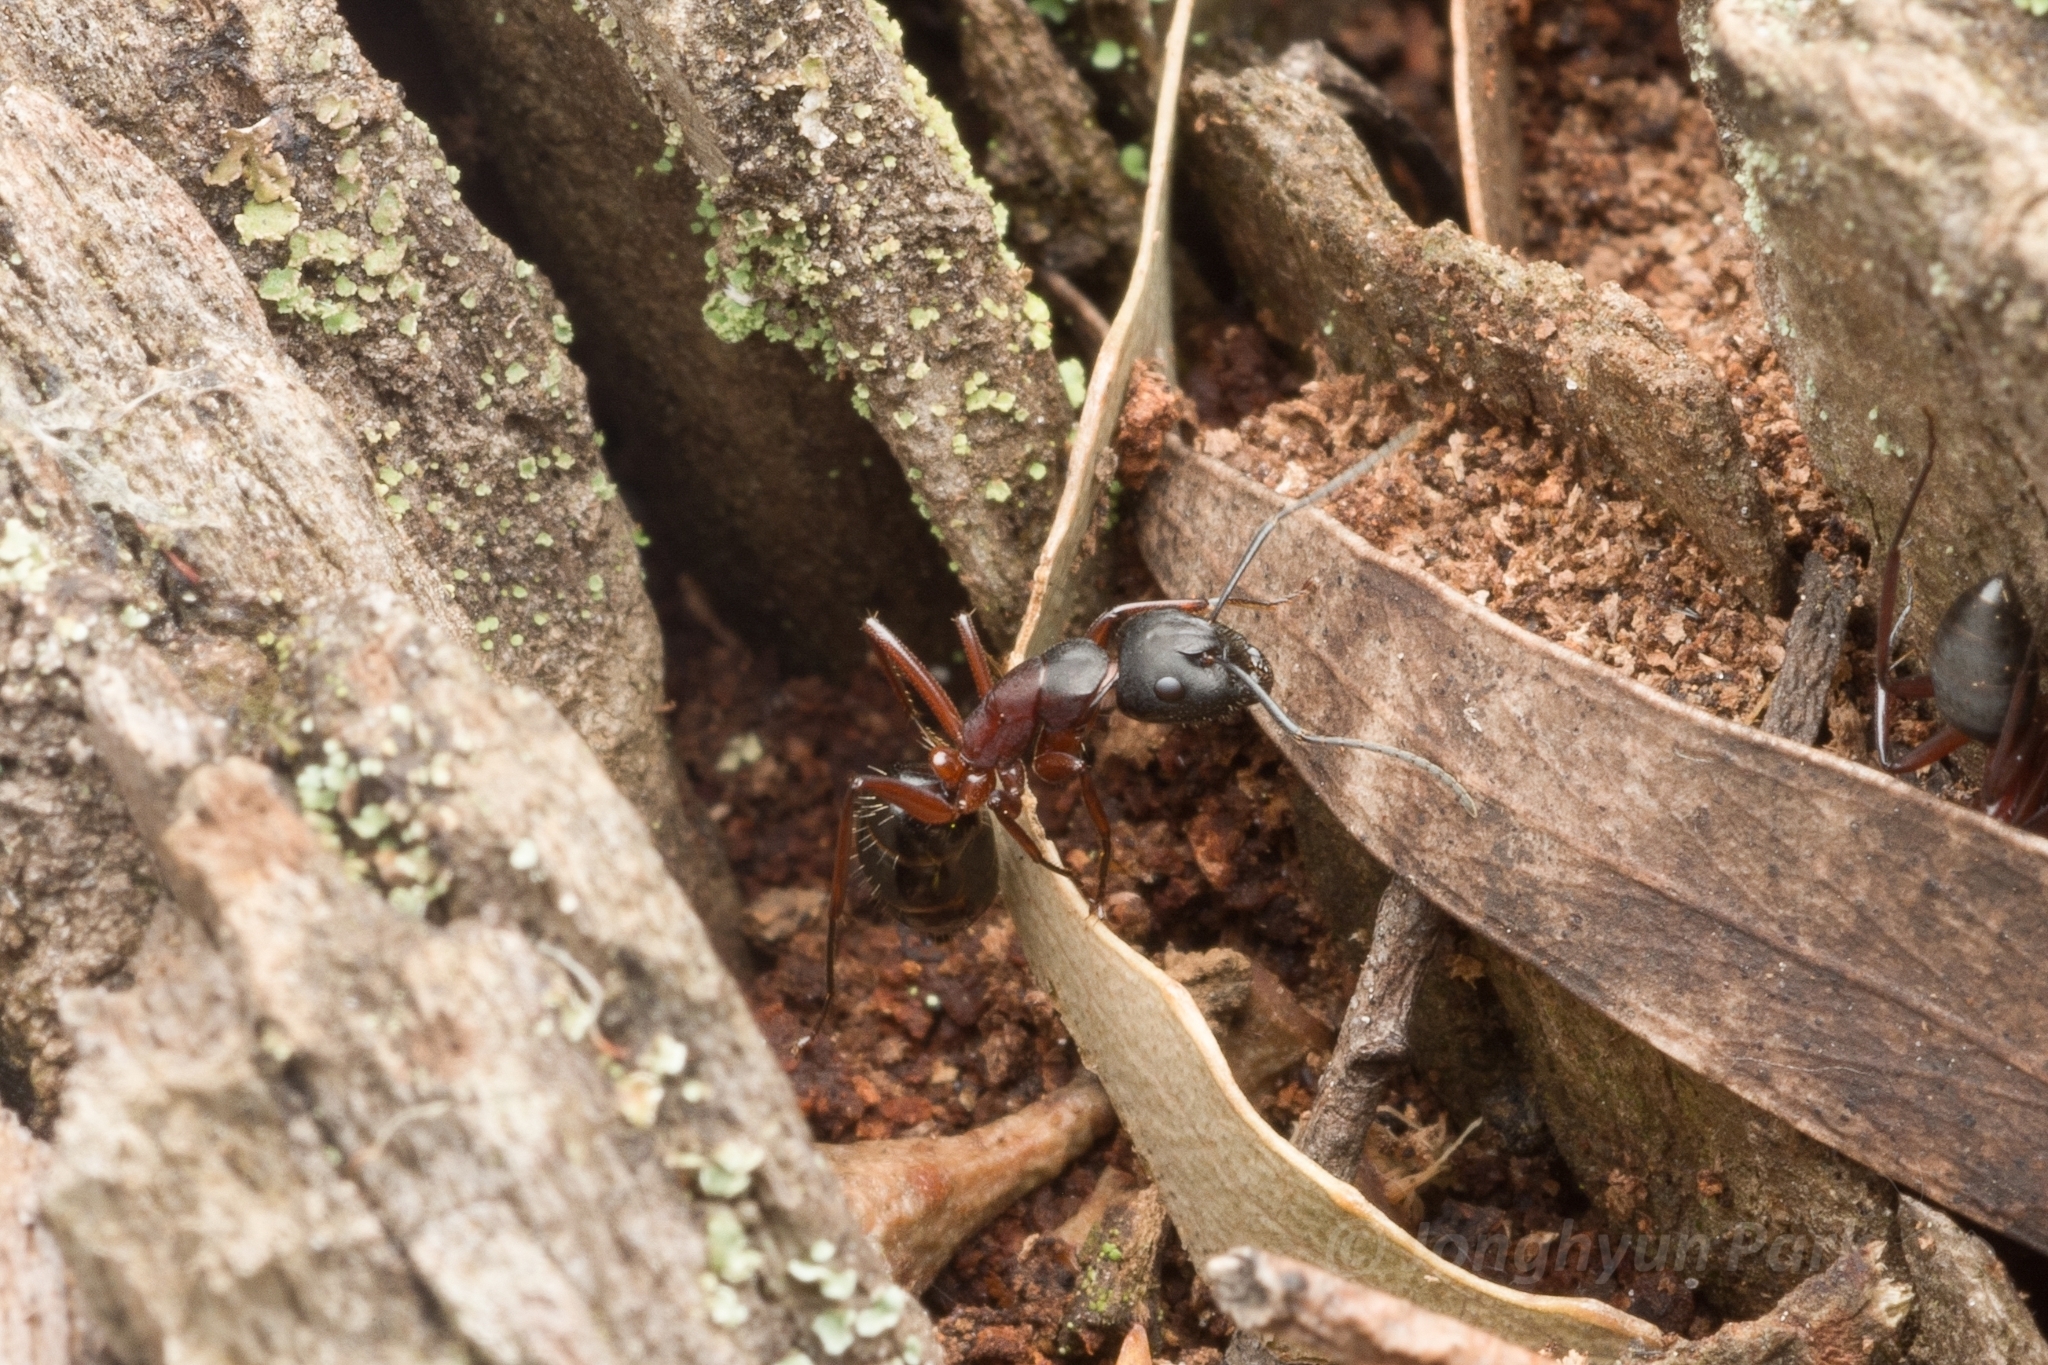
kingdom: Animalia
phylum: Arthropoda
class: Insecta
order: Hymenoptera
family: Formicidae
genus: Camponotus
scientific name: Camponotus innexus
